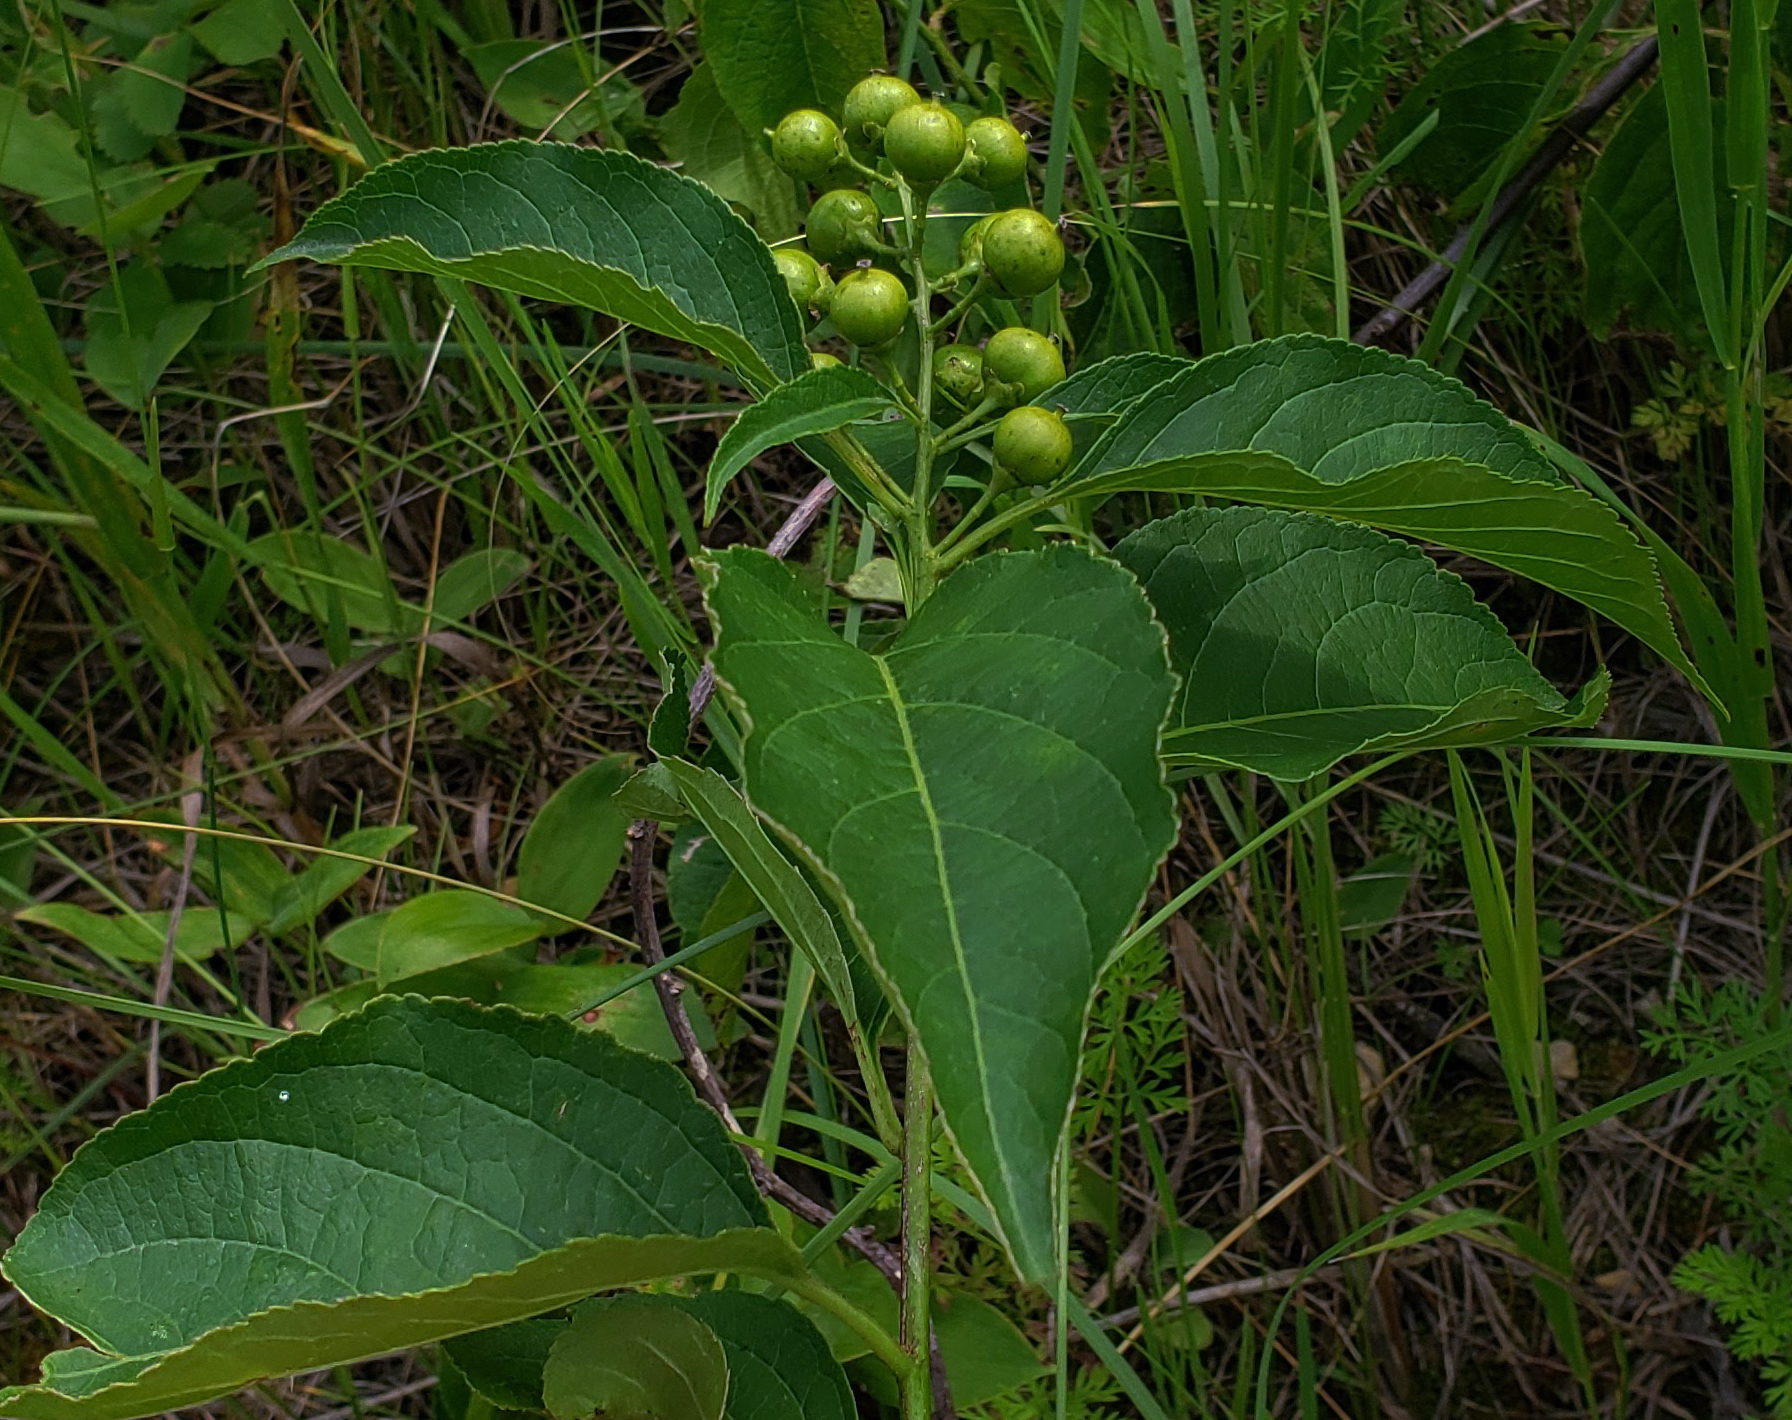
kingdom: Plantae
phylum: Tracheophyta
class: Magnoliopsida
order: Celastrales
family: Celastraceae
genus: Celastrus
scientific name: Celastrus scandens
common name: American bittersweet
